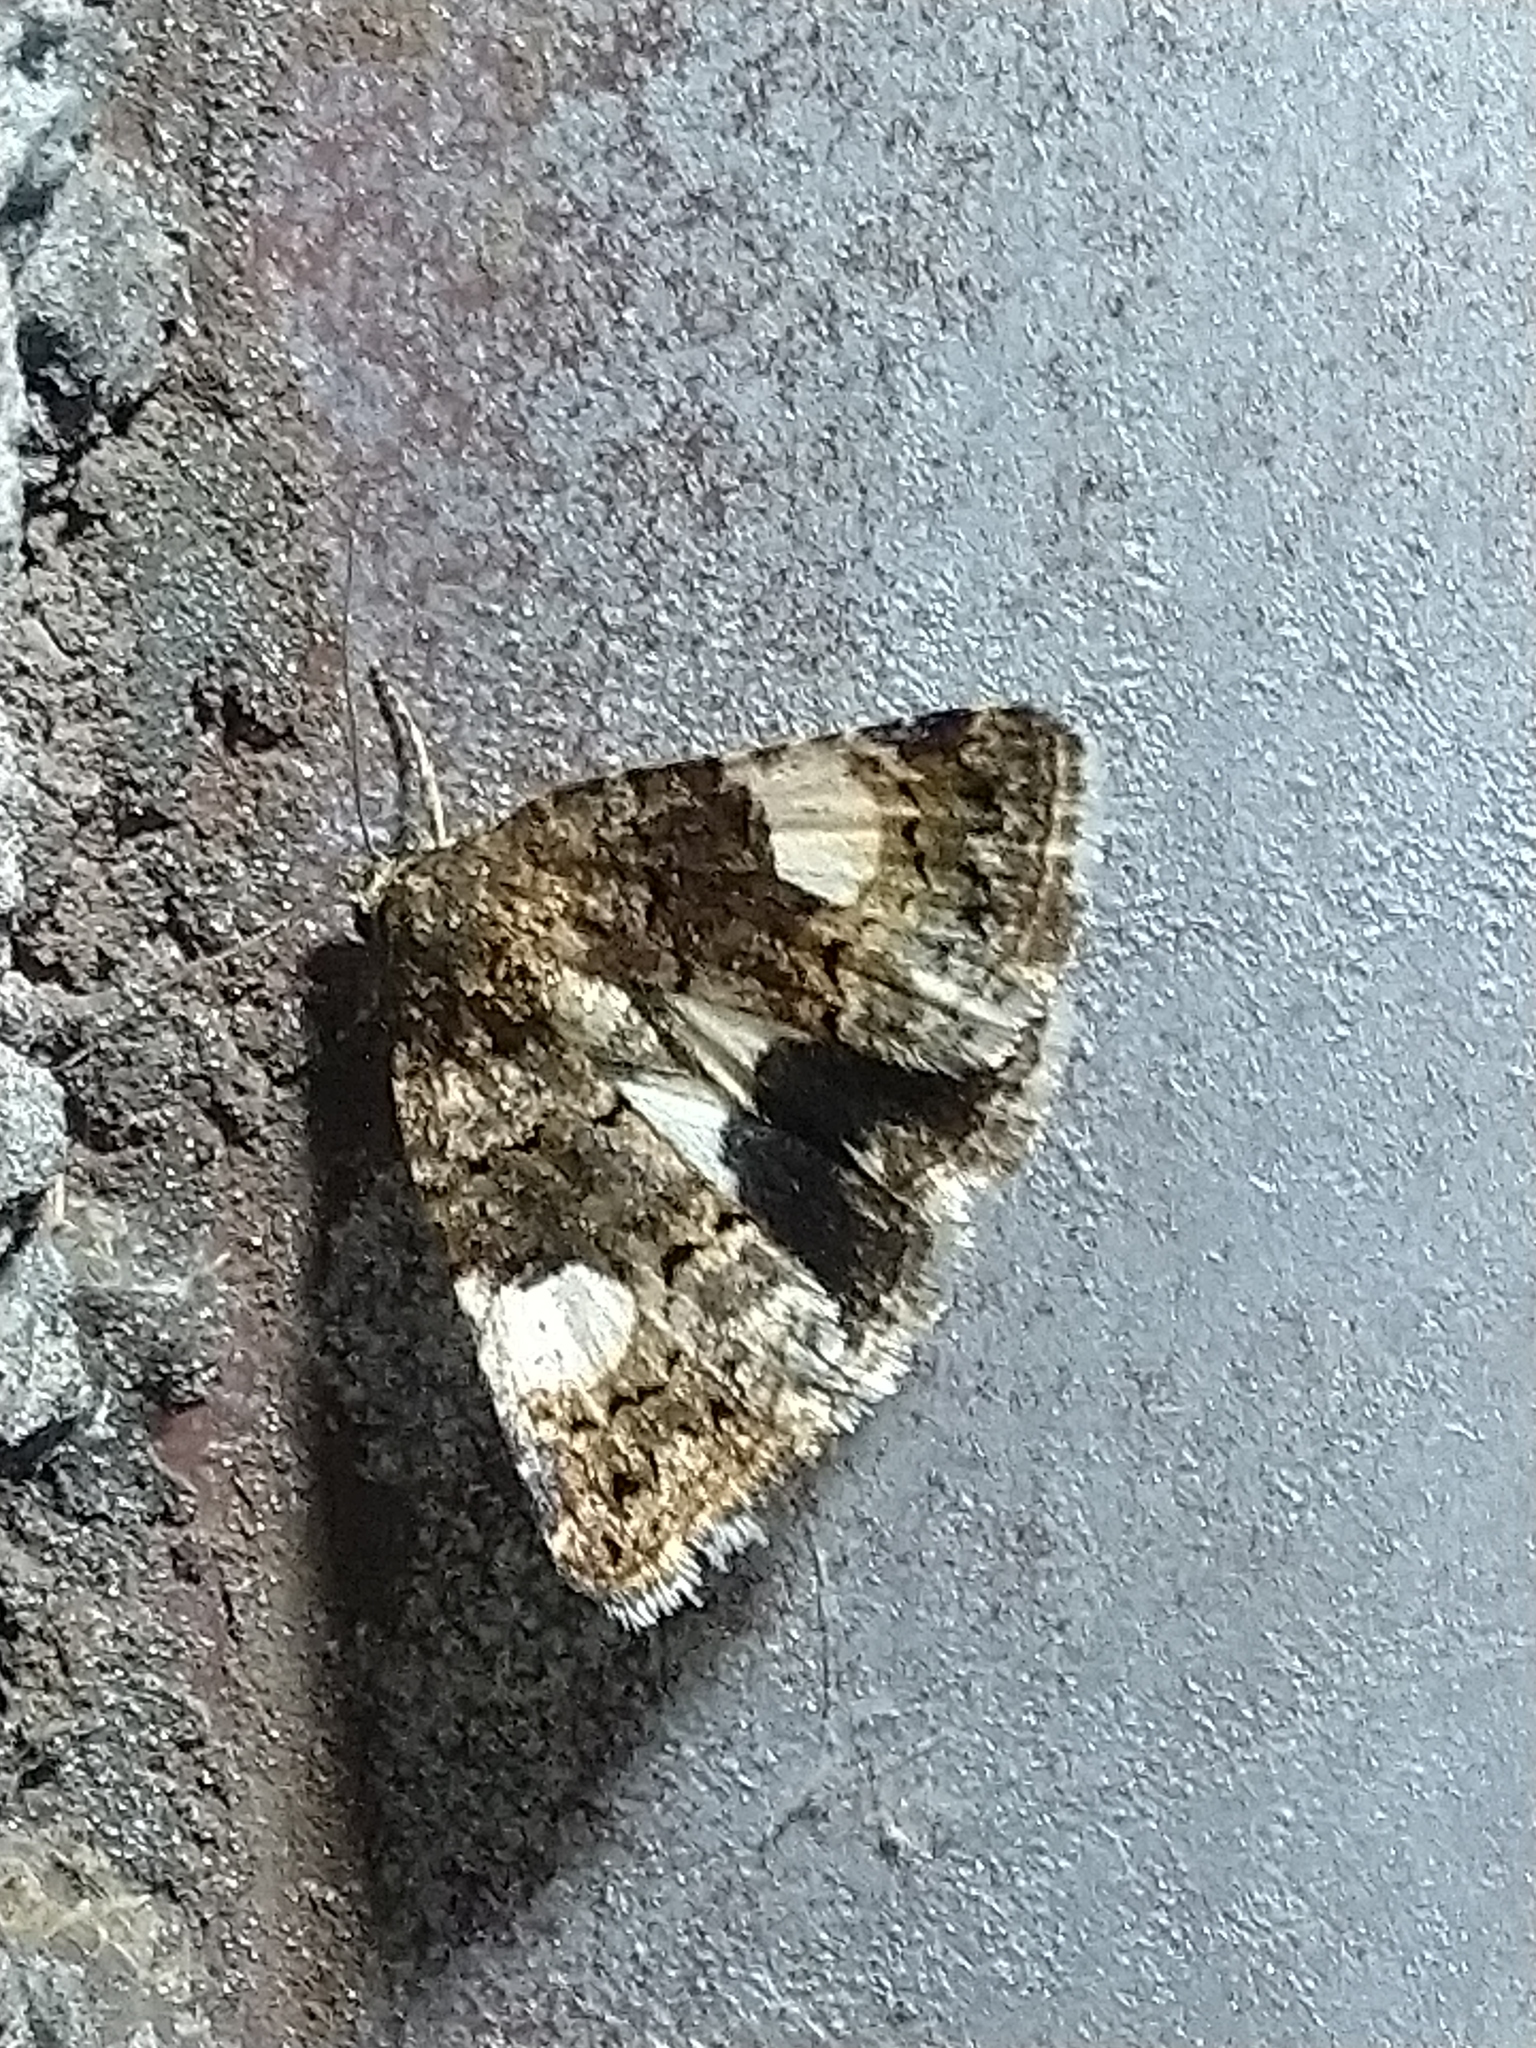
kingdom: Animalia
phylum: Arthropoda
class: Insecta
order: Lepidoptera
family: Erebidae
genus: Tyta
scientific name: Tyta luctuosa
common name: Four-spotted
